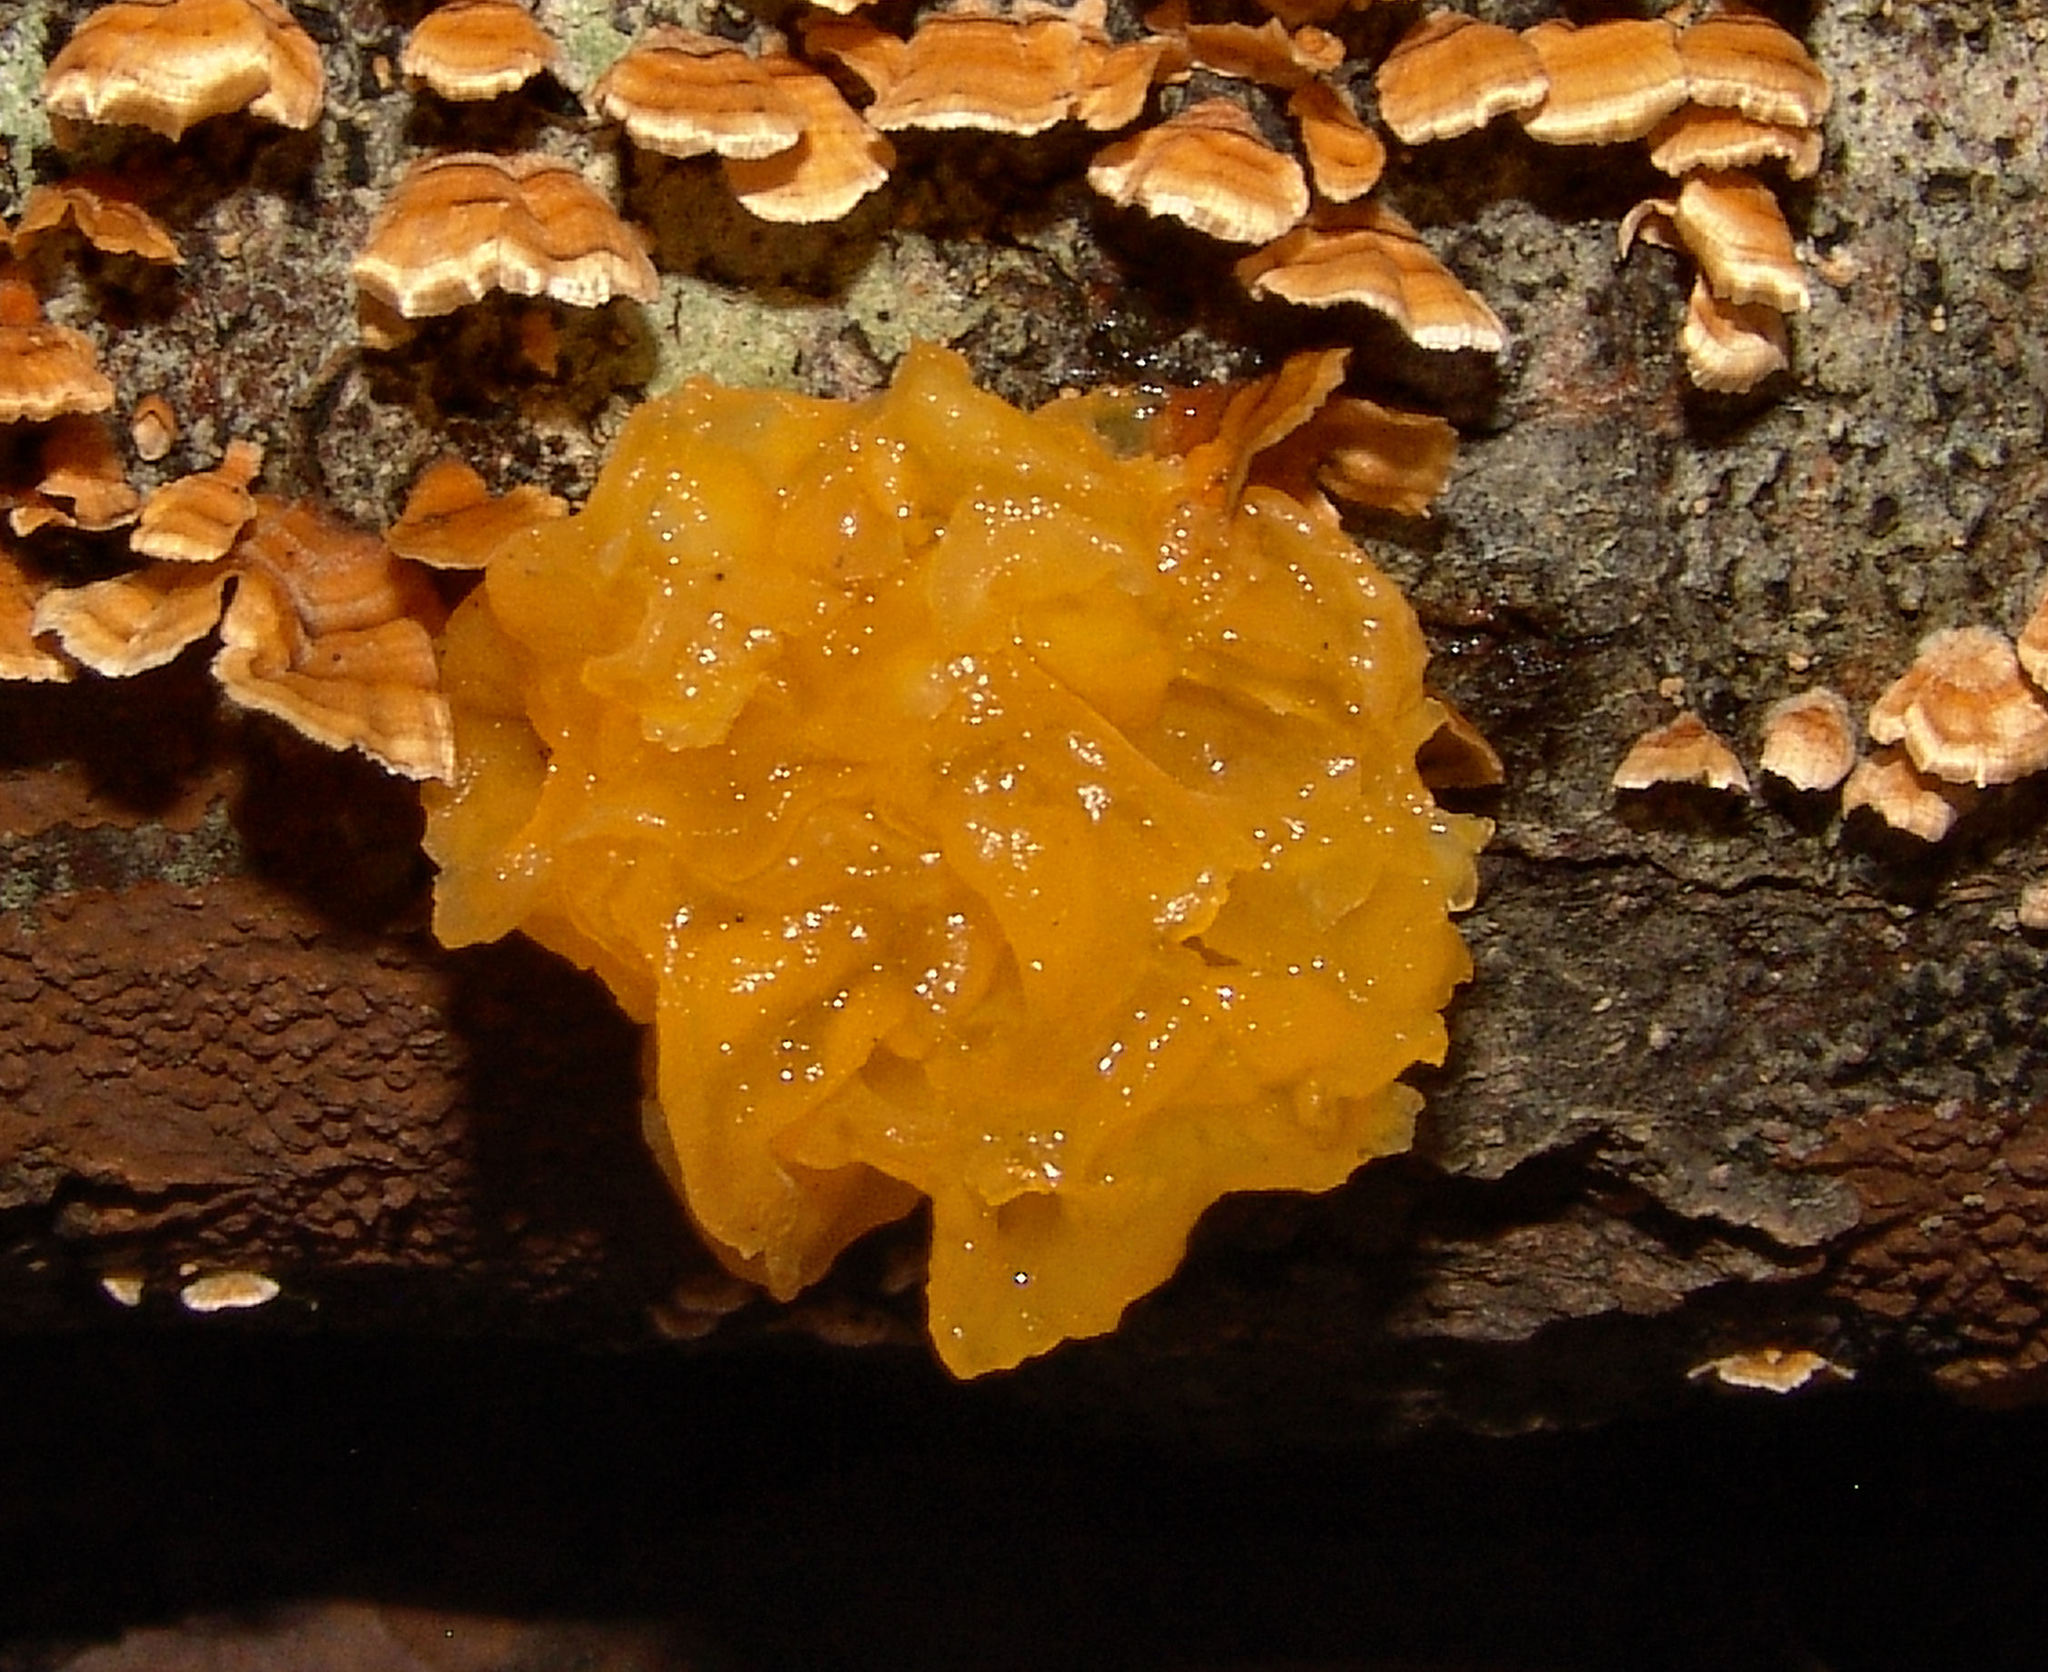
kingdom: Fungi
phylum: Basidiomycota
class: Tremellomycetes
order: Tremellales
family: Naemateliaceae
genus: Naematelia
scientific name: Naematelia aurantia
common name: Golden ear
